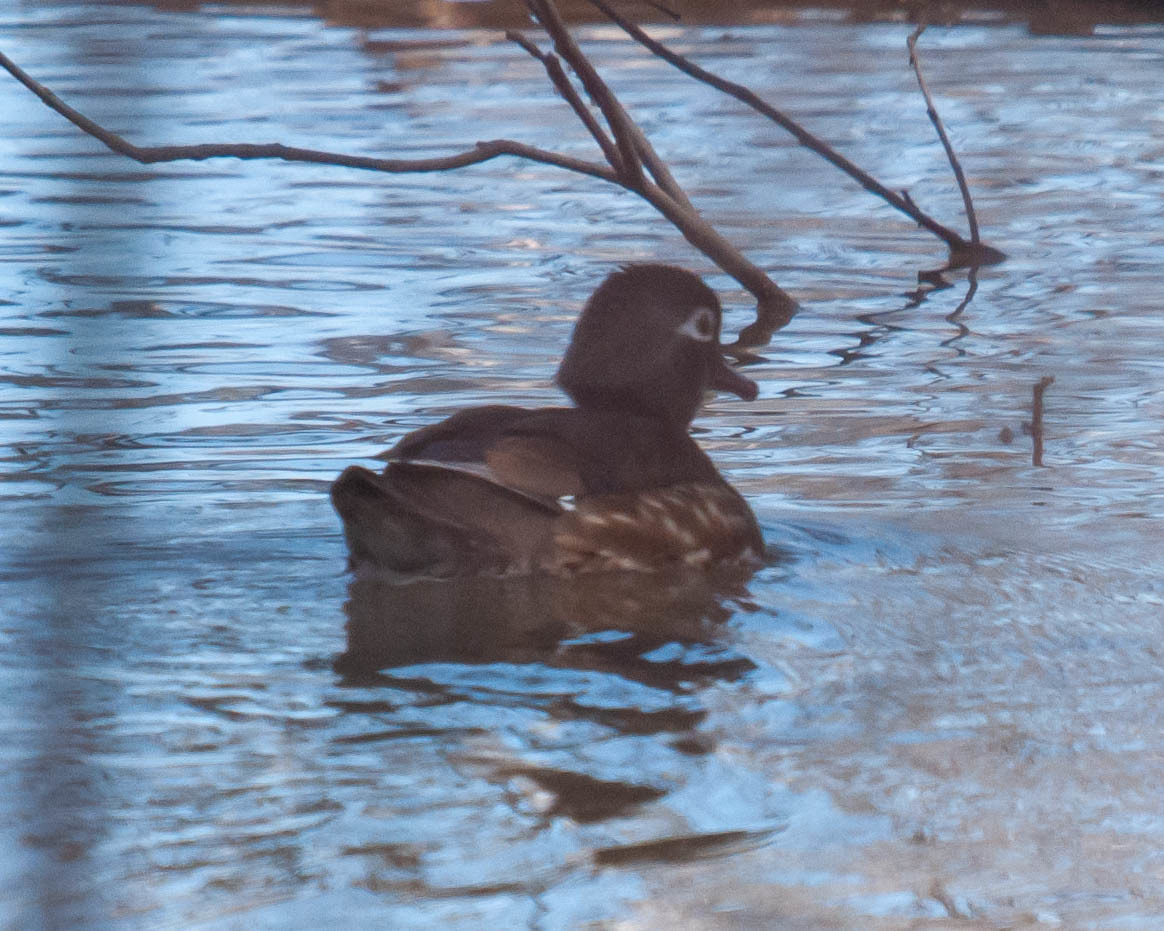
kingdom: Animalia
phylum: Chordata
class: Aves
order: Anseriformes
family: Anatidae
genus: Aix
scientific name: Aix sponsa
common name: Wood duck
